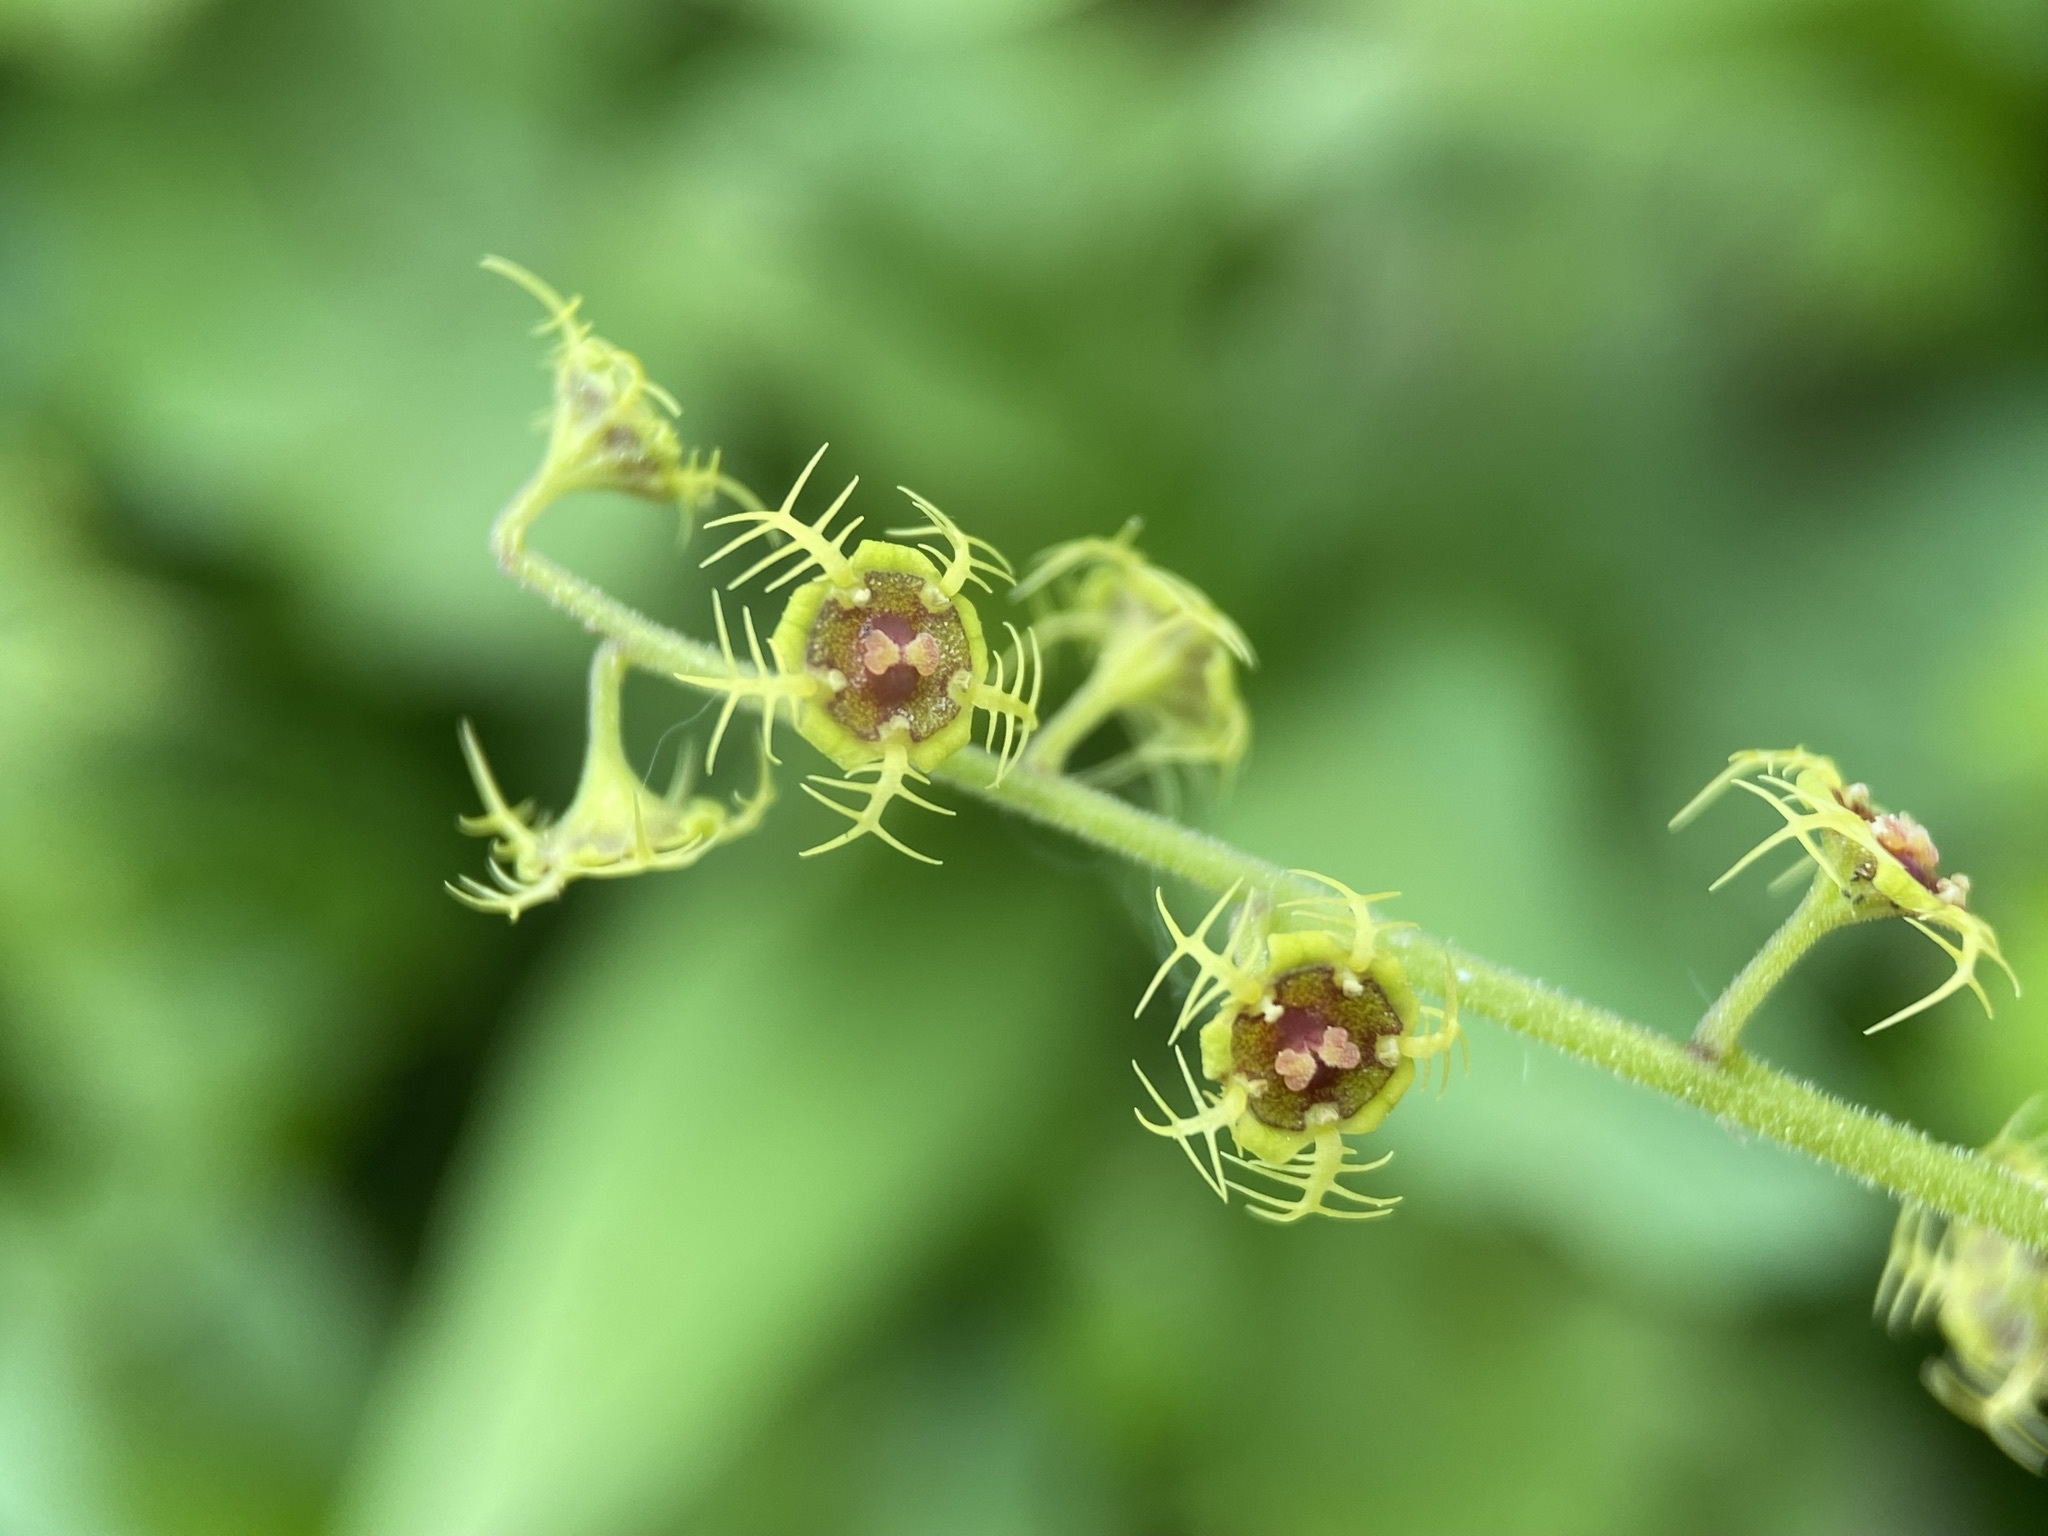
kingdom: Plantae
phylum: Tracheophyta
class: Magnoliopsida
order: Saxifragales
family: Saxifragaceae
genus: Pectiantia
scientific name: Pectiantia pentandra
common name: Alpine bishop's-cap
